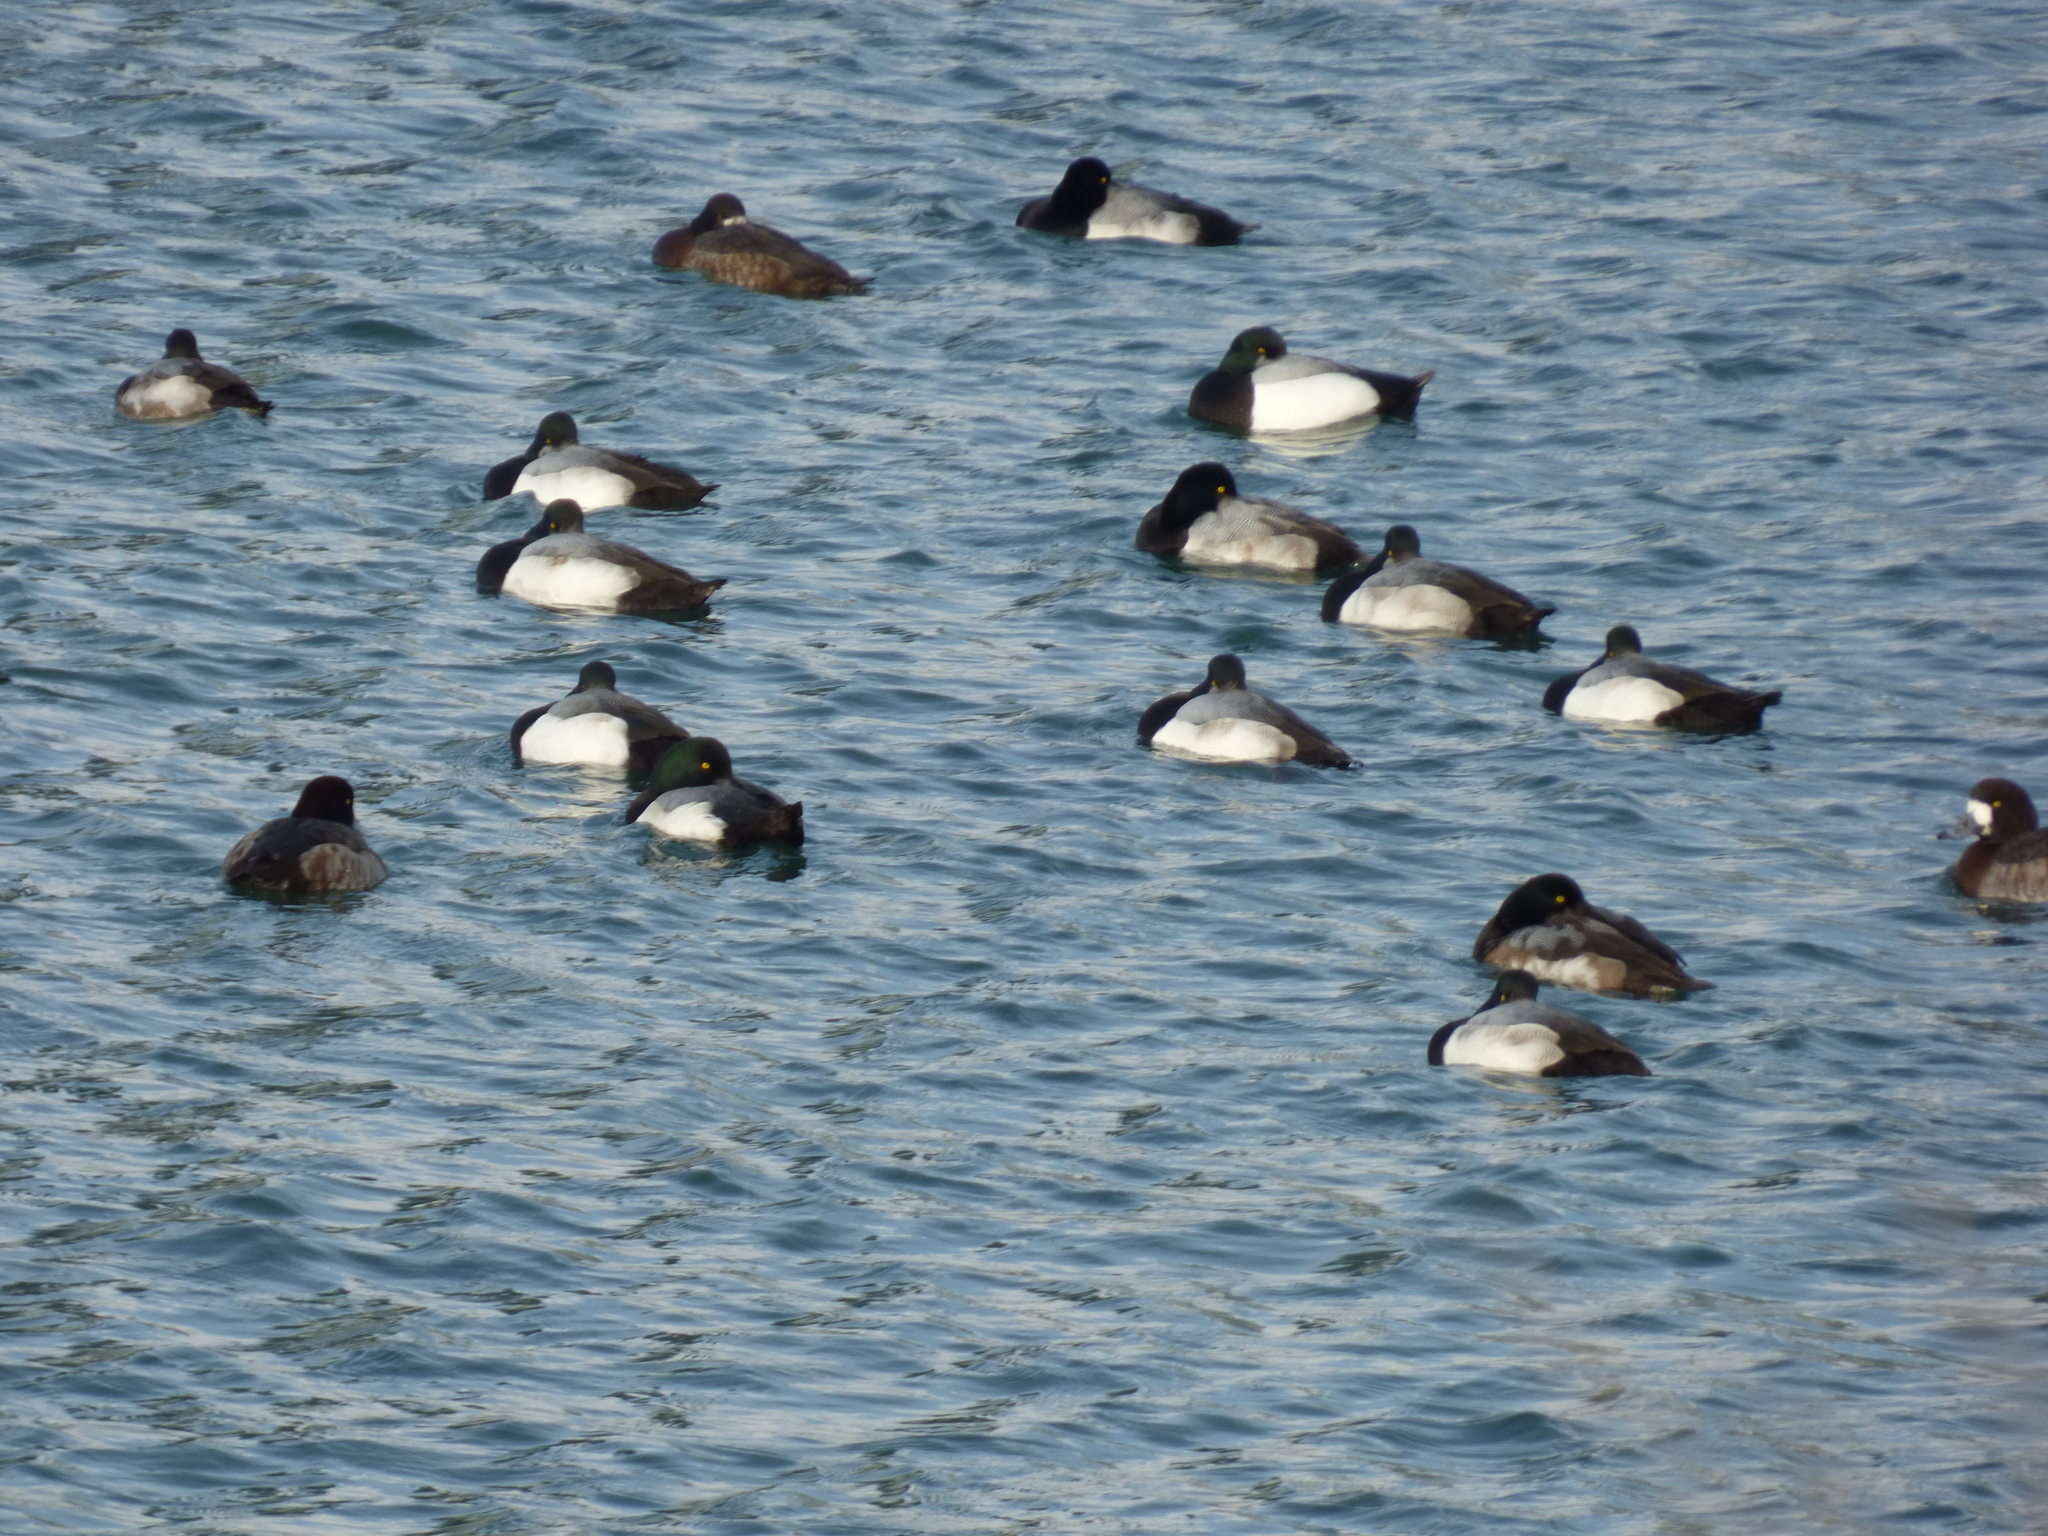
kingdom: Animalia
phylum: Chordata
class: Aves
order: Anseriformes
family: Anatidae
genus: Aythya
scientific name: Aythya marila
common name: Greater scaup
